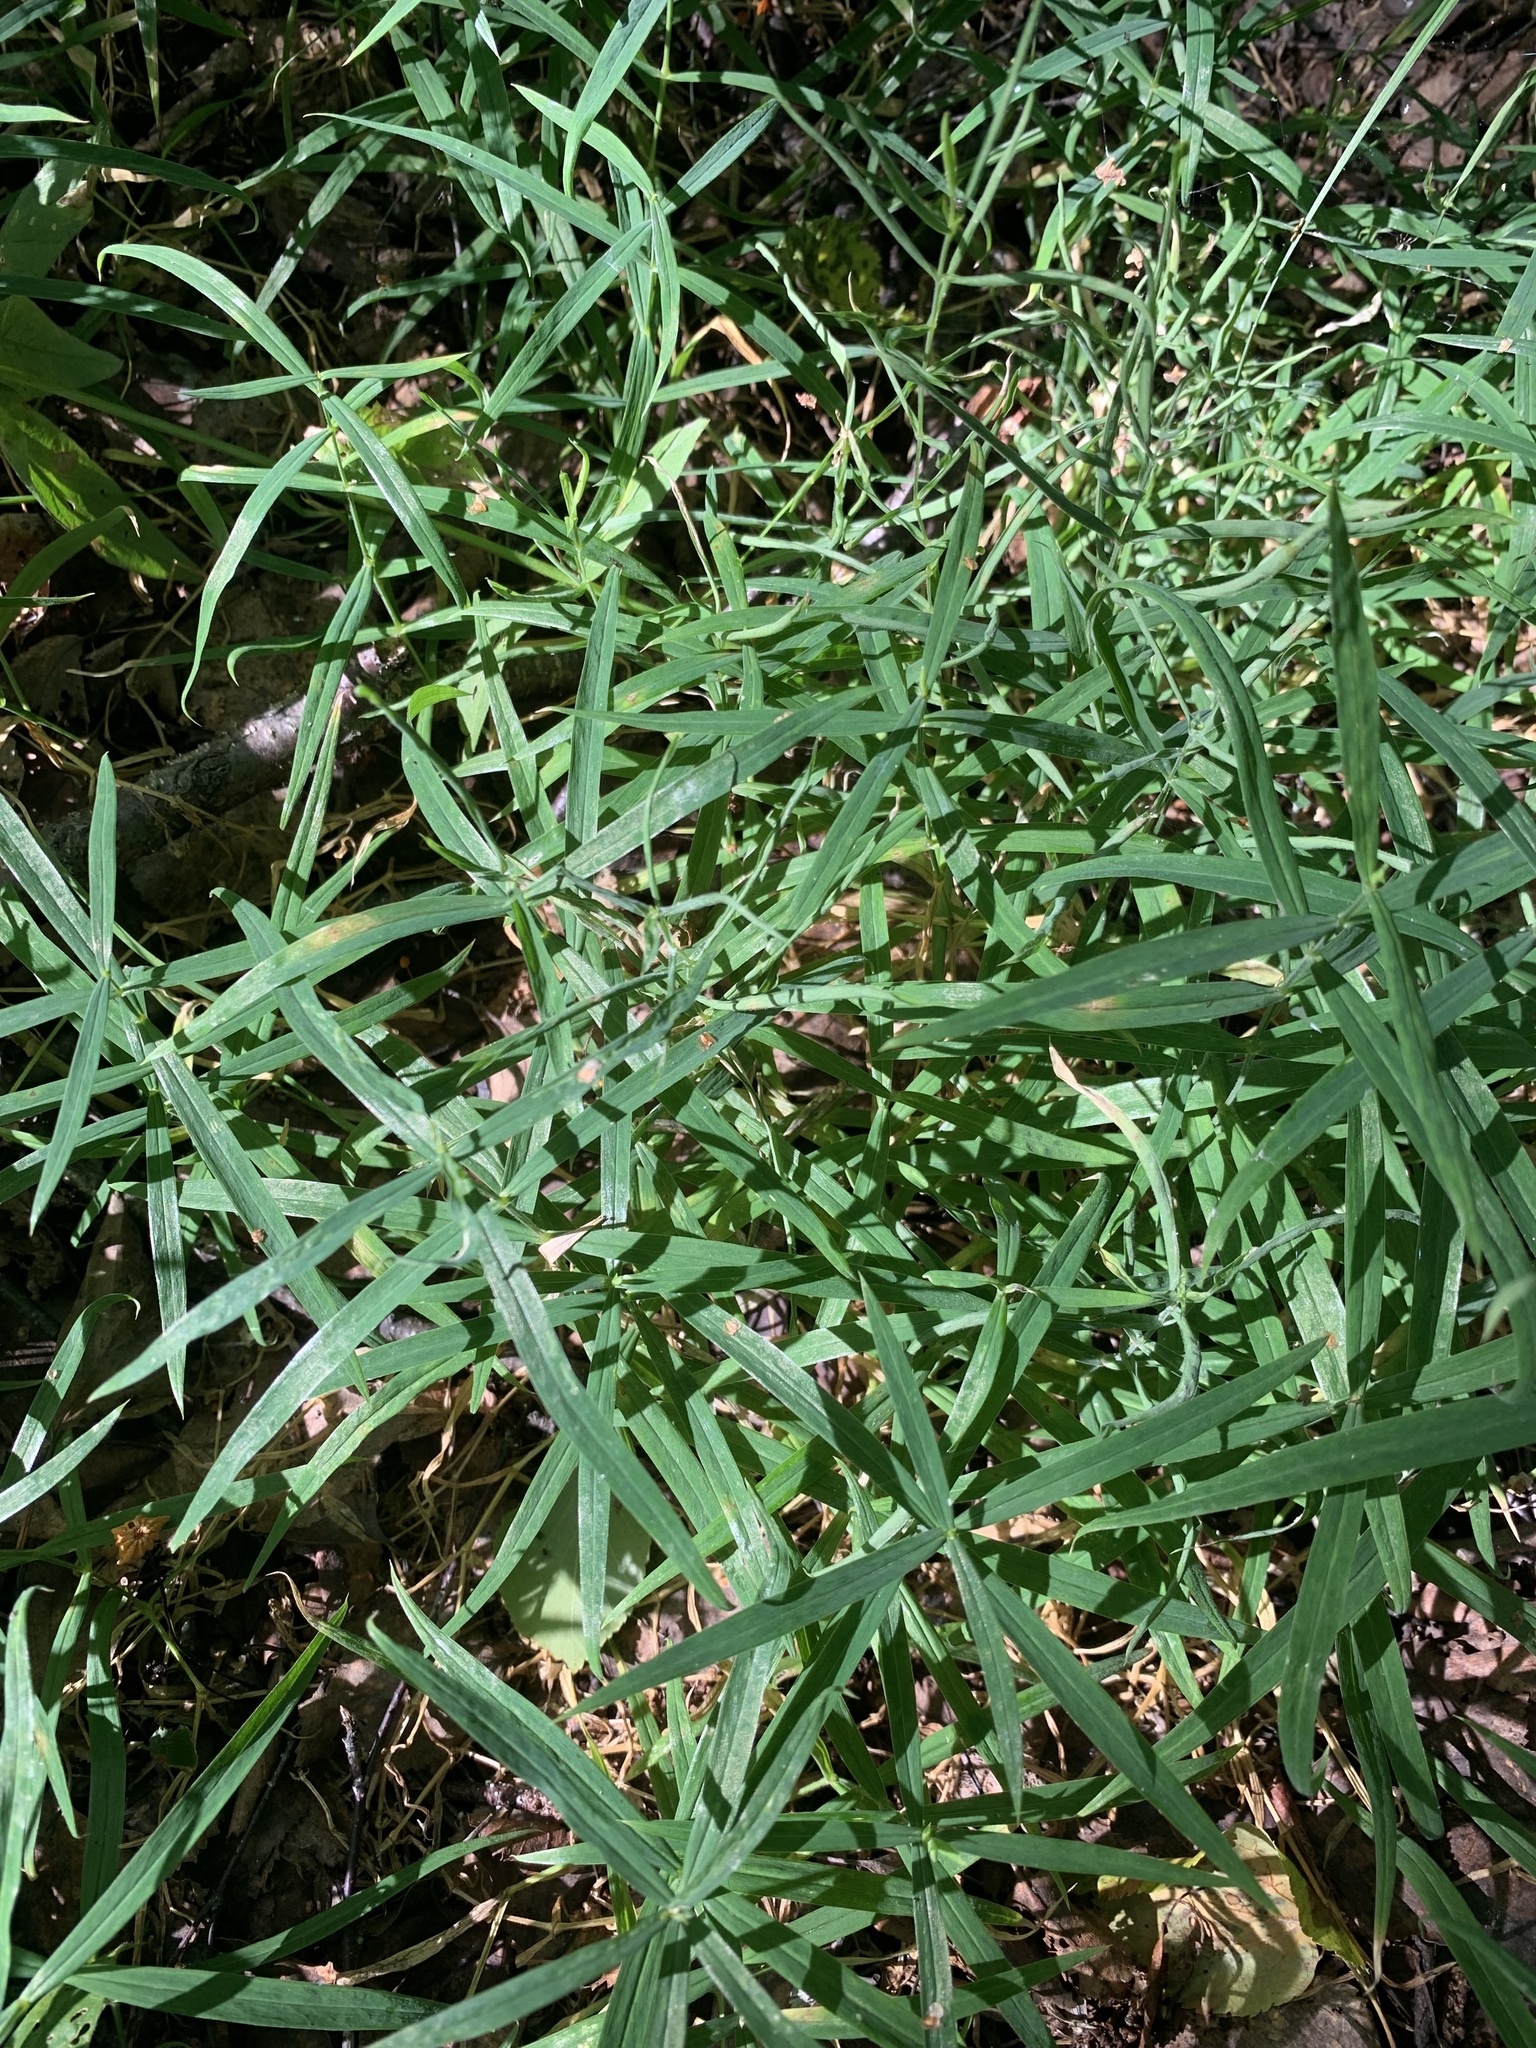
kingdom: Plantae
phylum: Tracheophyta
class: Magnoliopsida
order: Caryophyllales
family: Caryophyllaceae
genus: Rabelera
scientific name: Rabelera holostea
